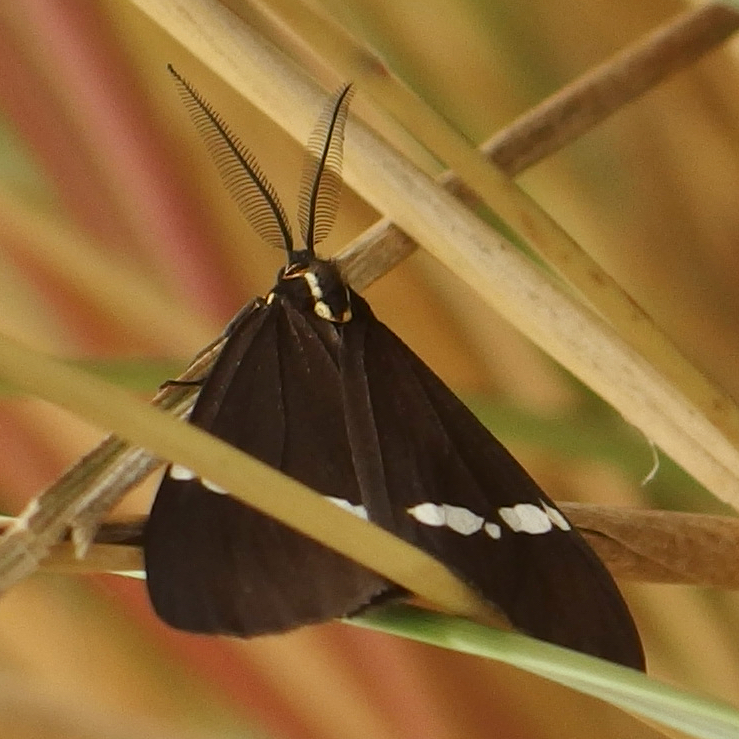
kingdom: Animalia
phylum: Arthropoda
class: Insecta
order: Lepidoptera
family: Erebidae
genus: Nyctemera
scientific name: Nyctemera annulatum
